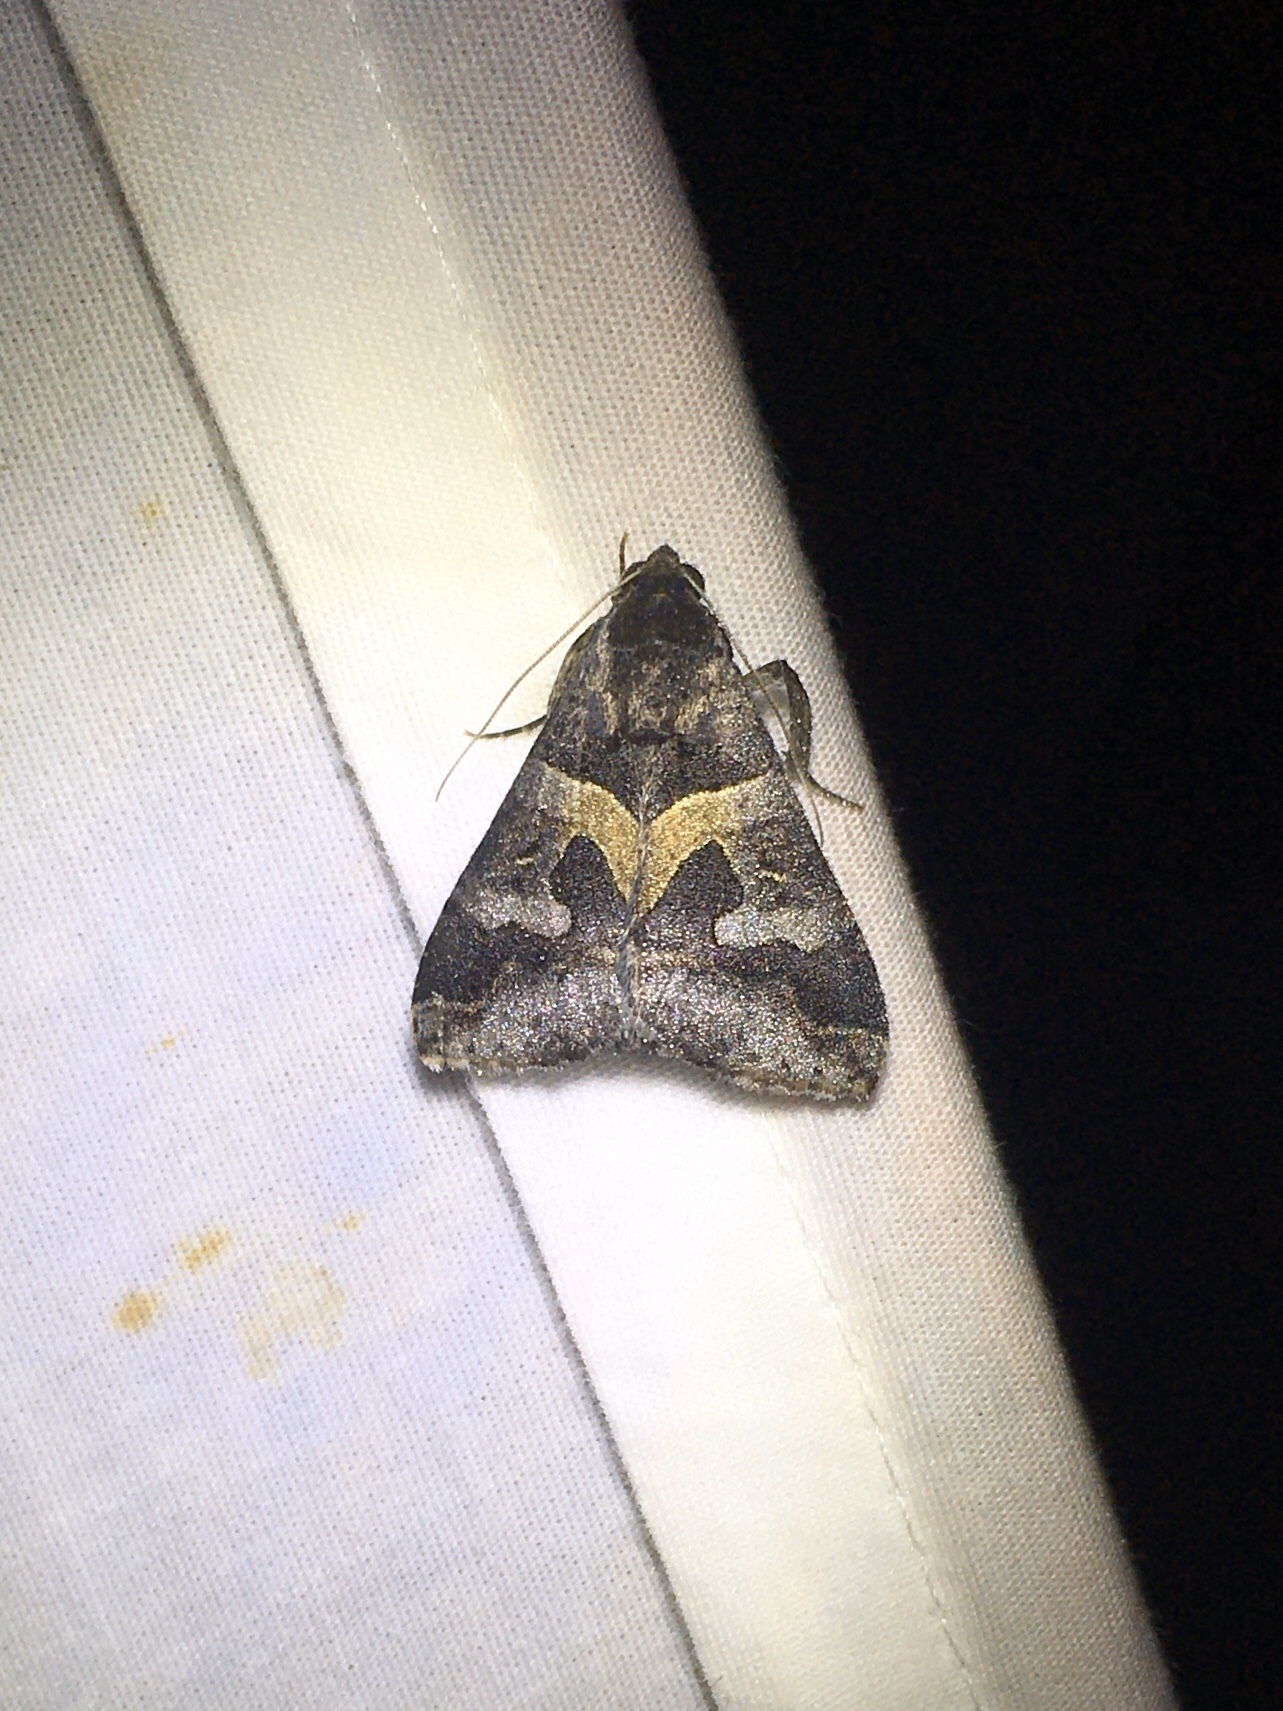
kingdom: Animalia
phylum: Arthropoda
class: Insecta
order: Lepidoptera
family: Erebidae
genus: Melipotis
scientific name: Melipotis florida
